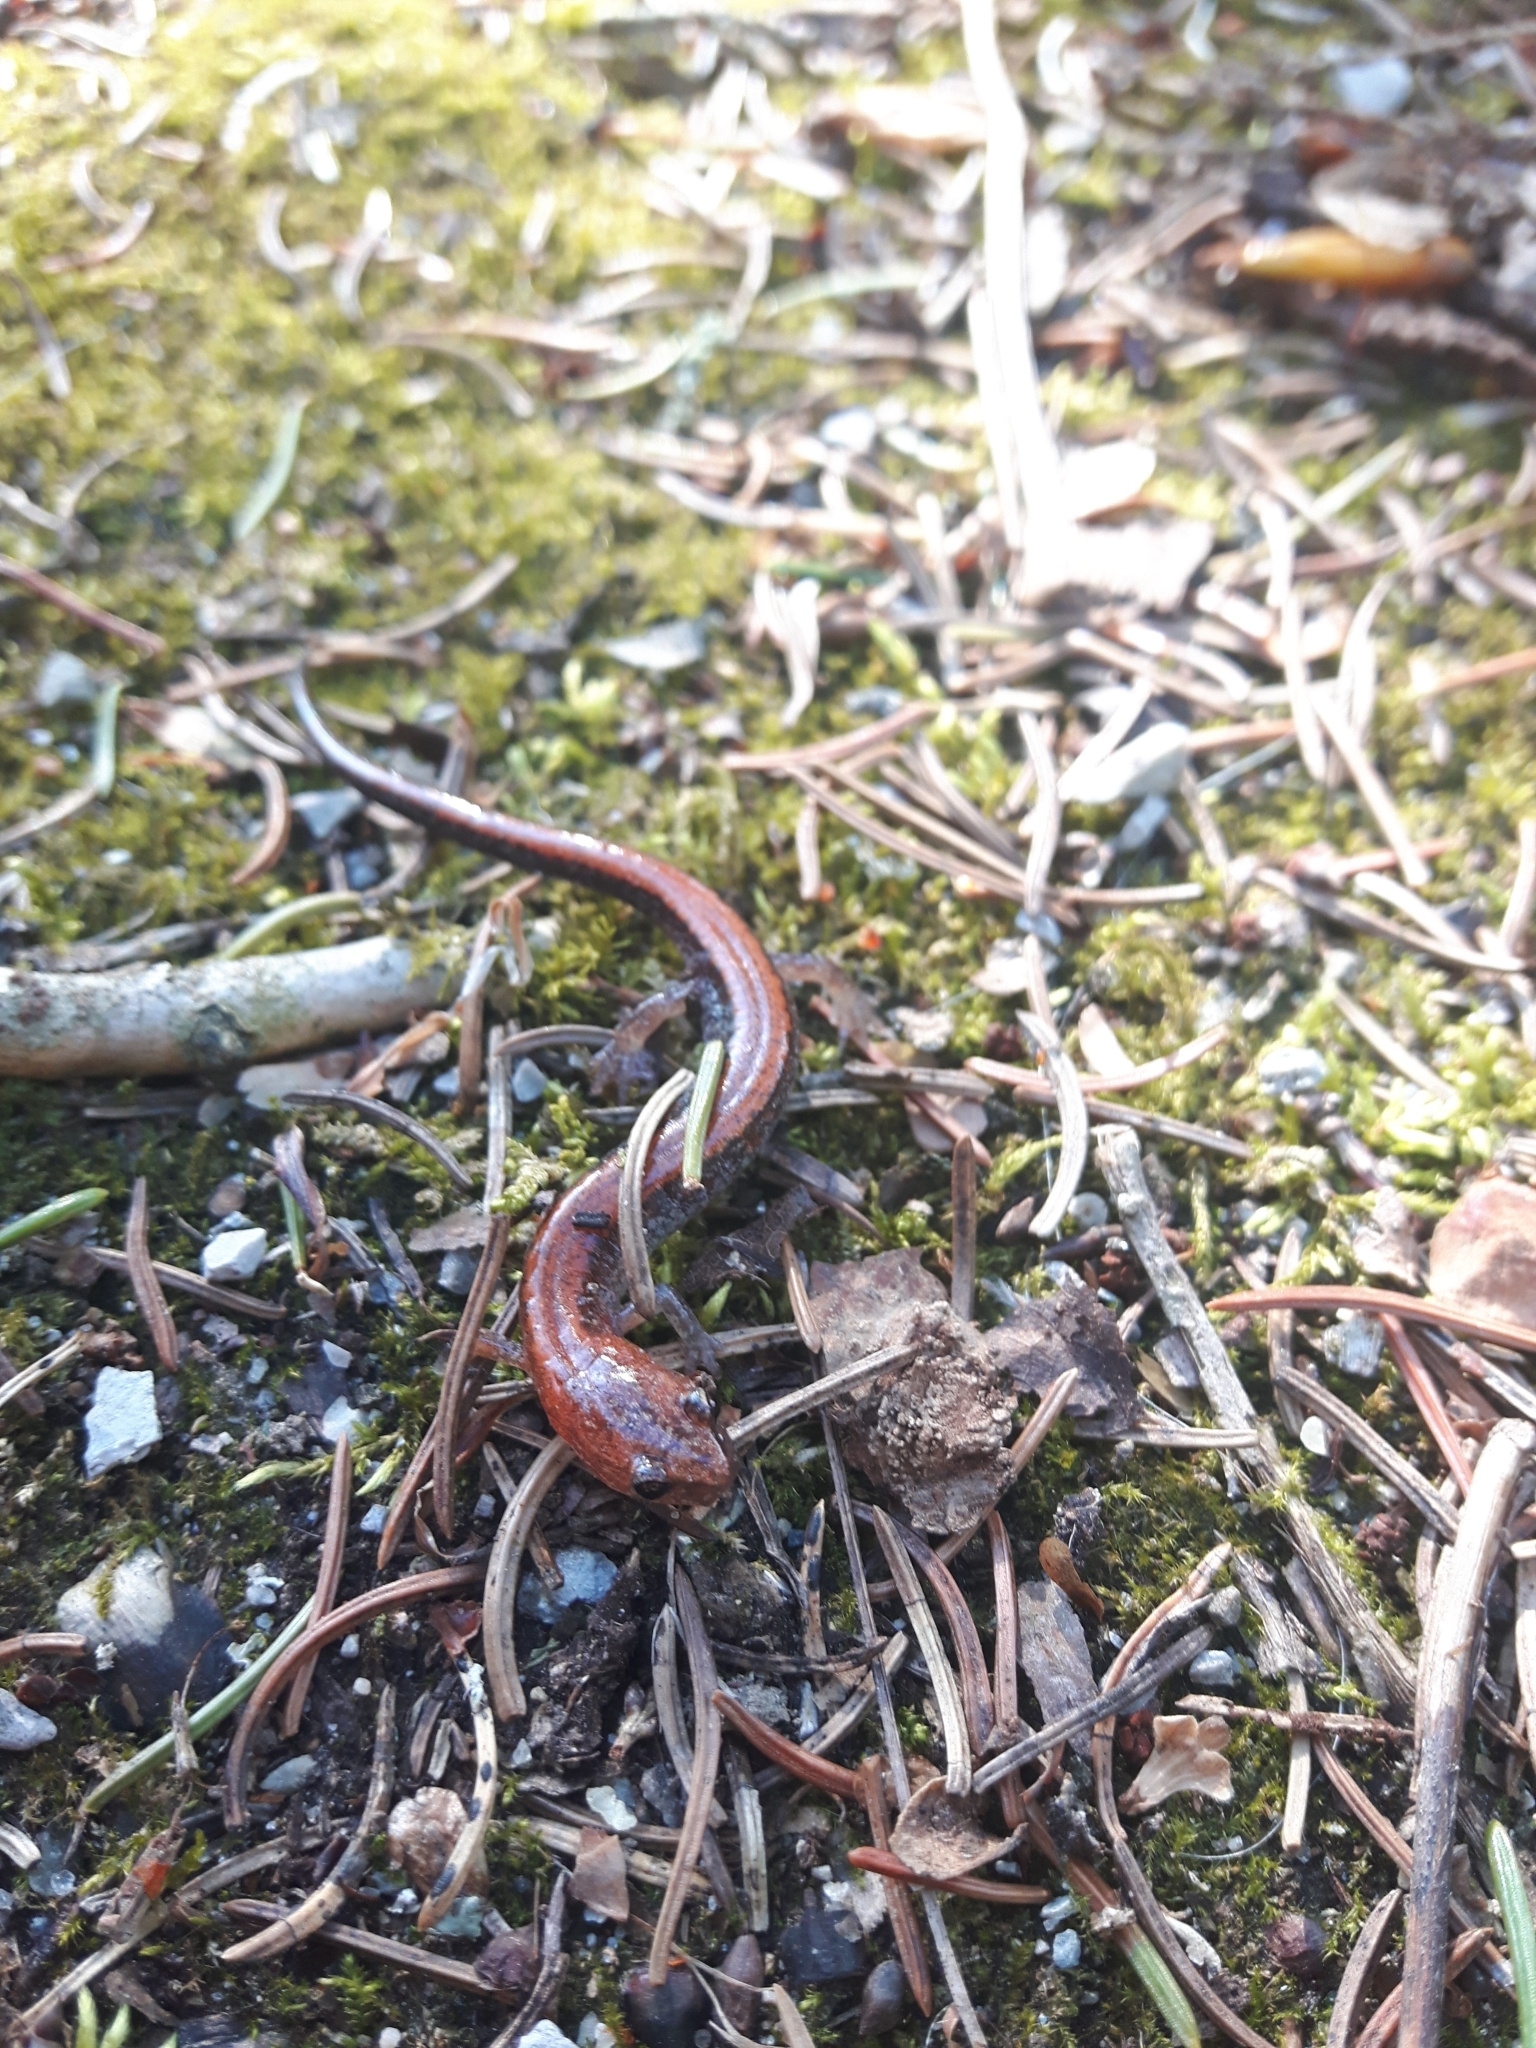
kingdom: Animalia
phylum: Chordata
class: Amphibia
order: Caudata
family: Plethodontidae
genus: Plethodon
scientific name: Plethodon cinereus
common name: Redback salamander
